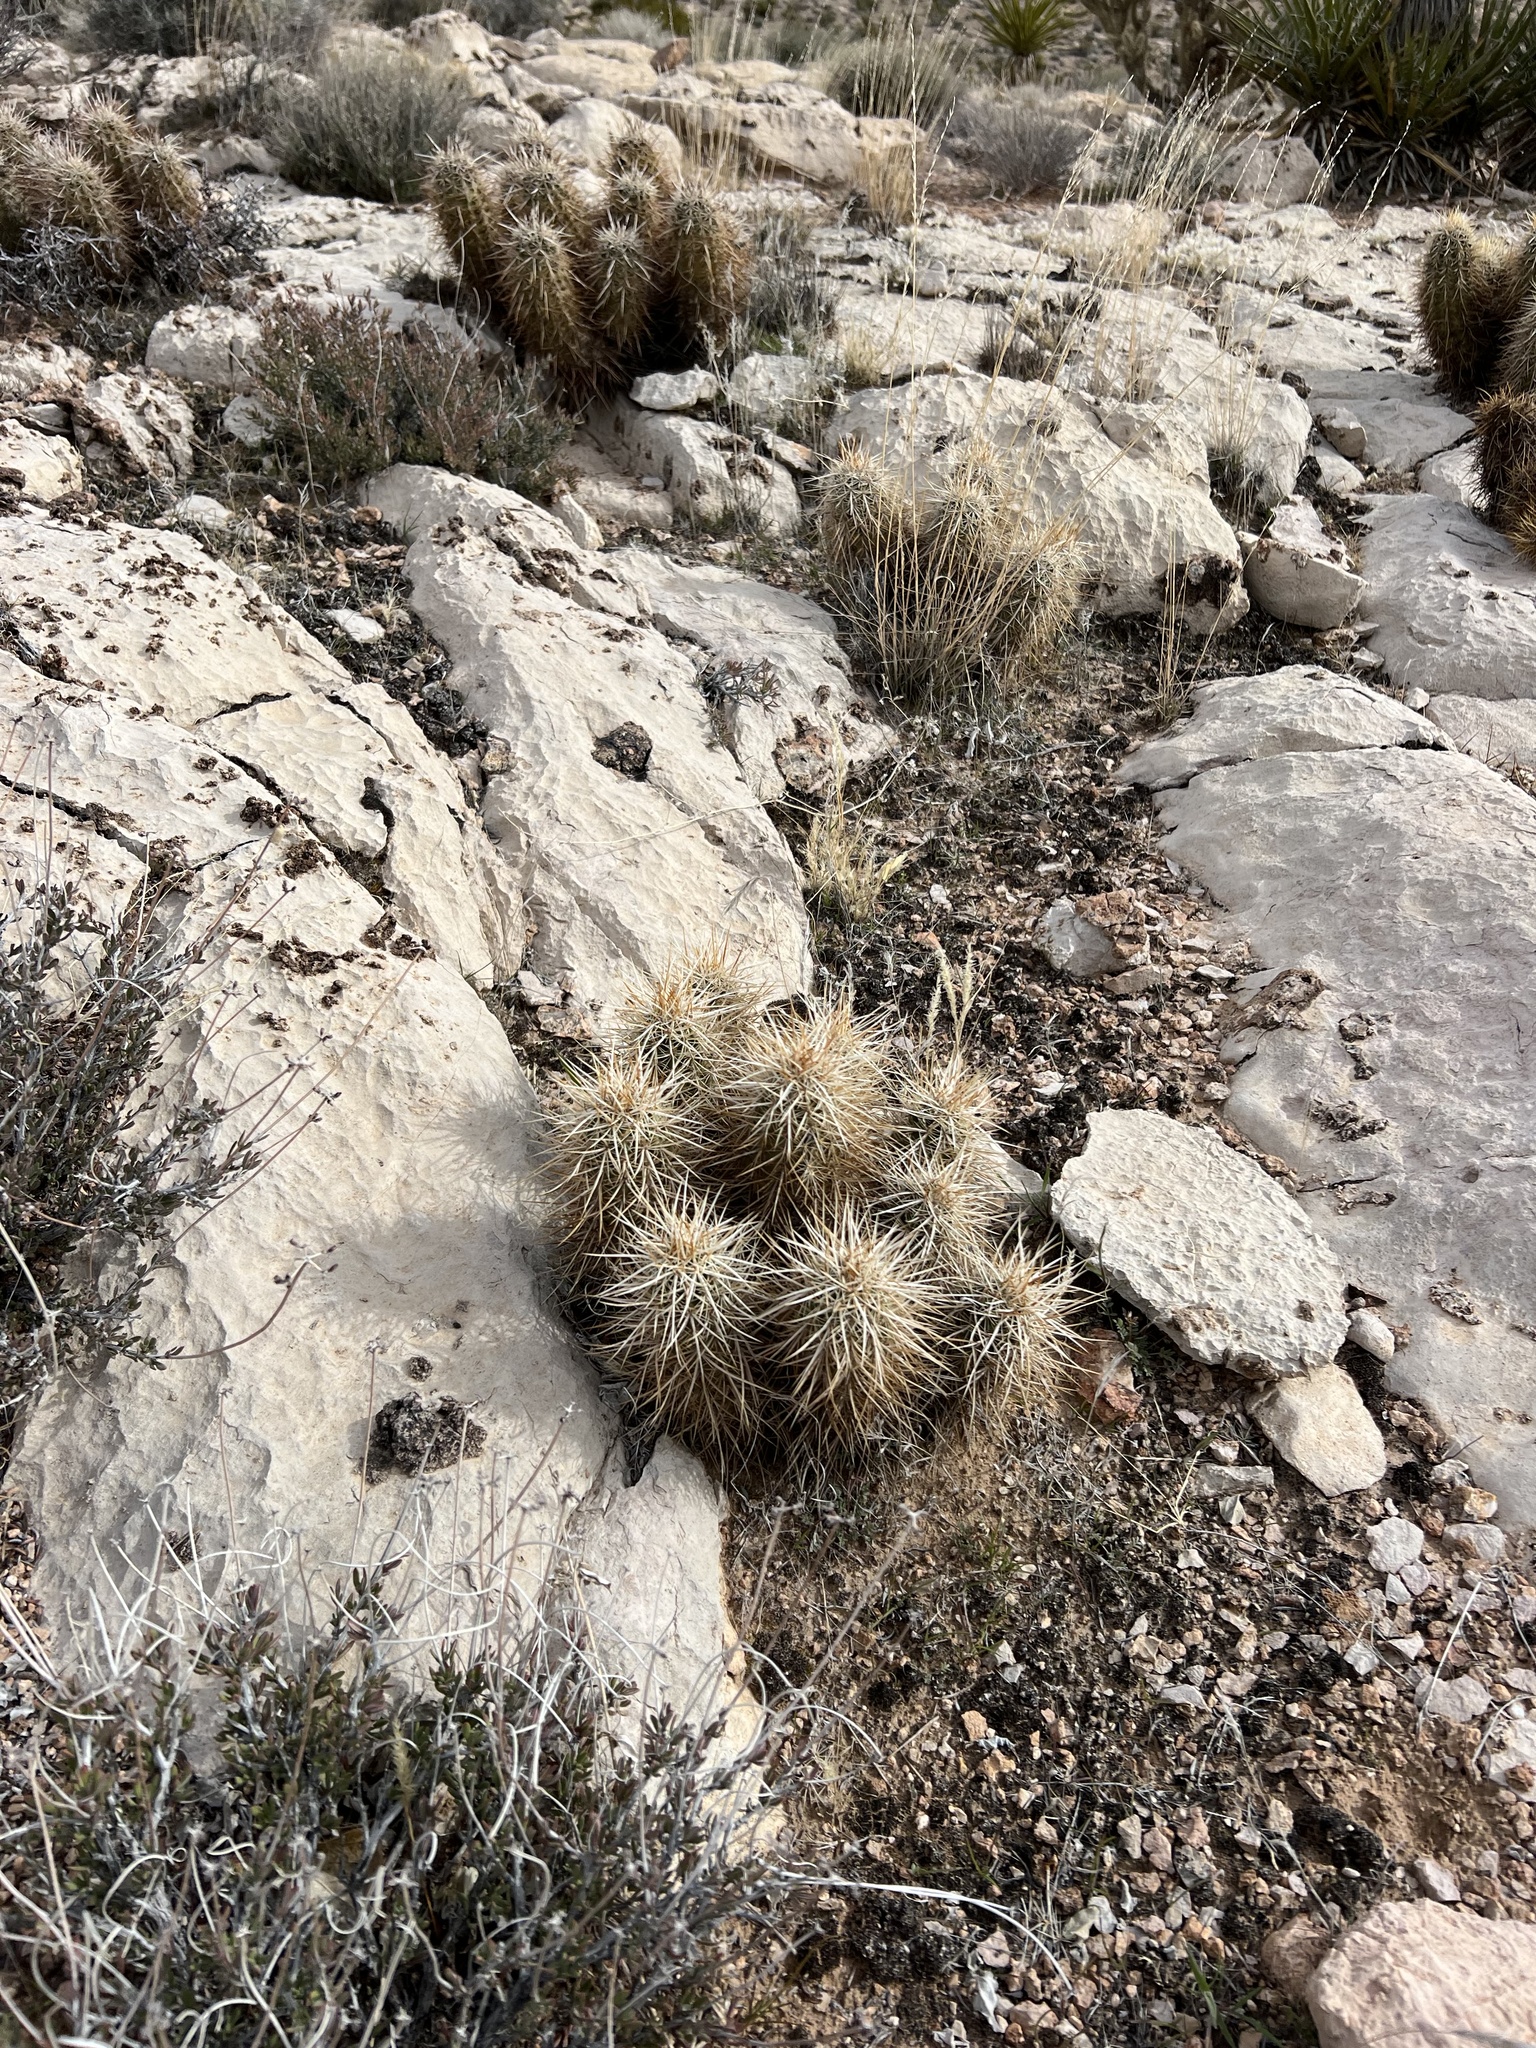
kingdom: Plantae
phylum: Tracheophyta
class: Magnoliopsida
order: Caryophyllales
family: Cactaceae
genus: Echinocereus
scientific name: Echinocereus engelmannii
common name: Engelmann's hedgehog cactus
